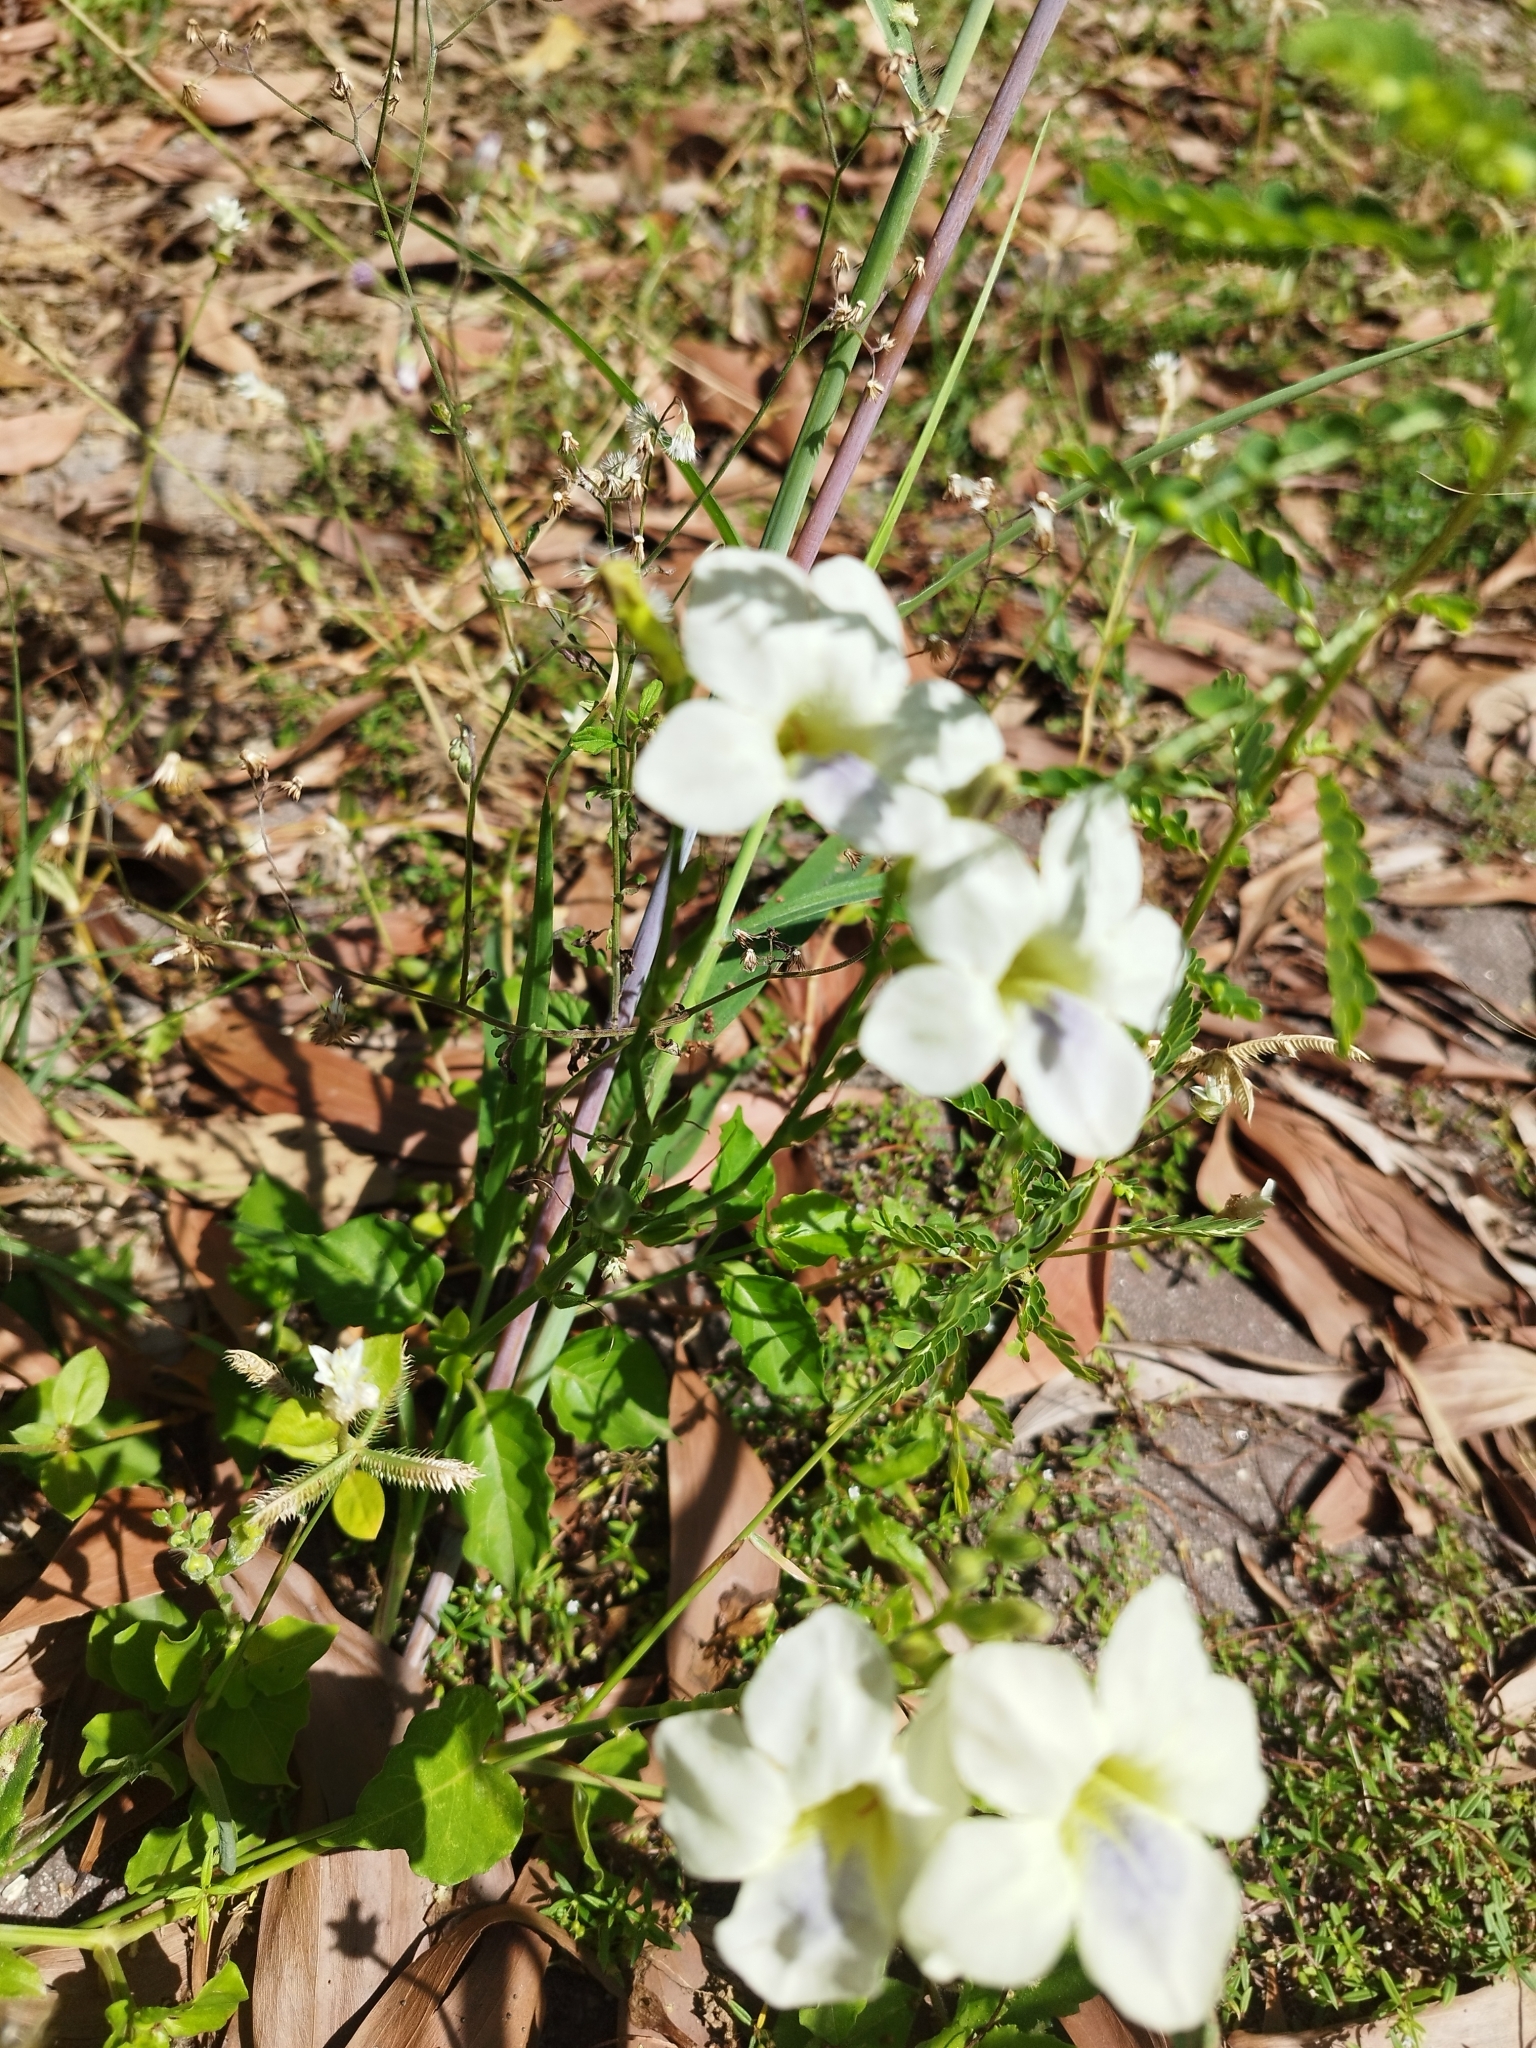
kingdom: Plantae
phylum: Tracheophyta
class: Magnoliopsida
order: Lamiales
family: Acanthaceae
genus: Asystasia
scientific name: Asystasia gangetica
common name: Chinese violet
